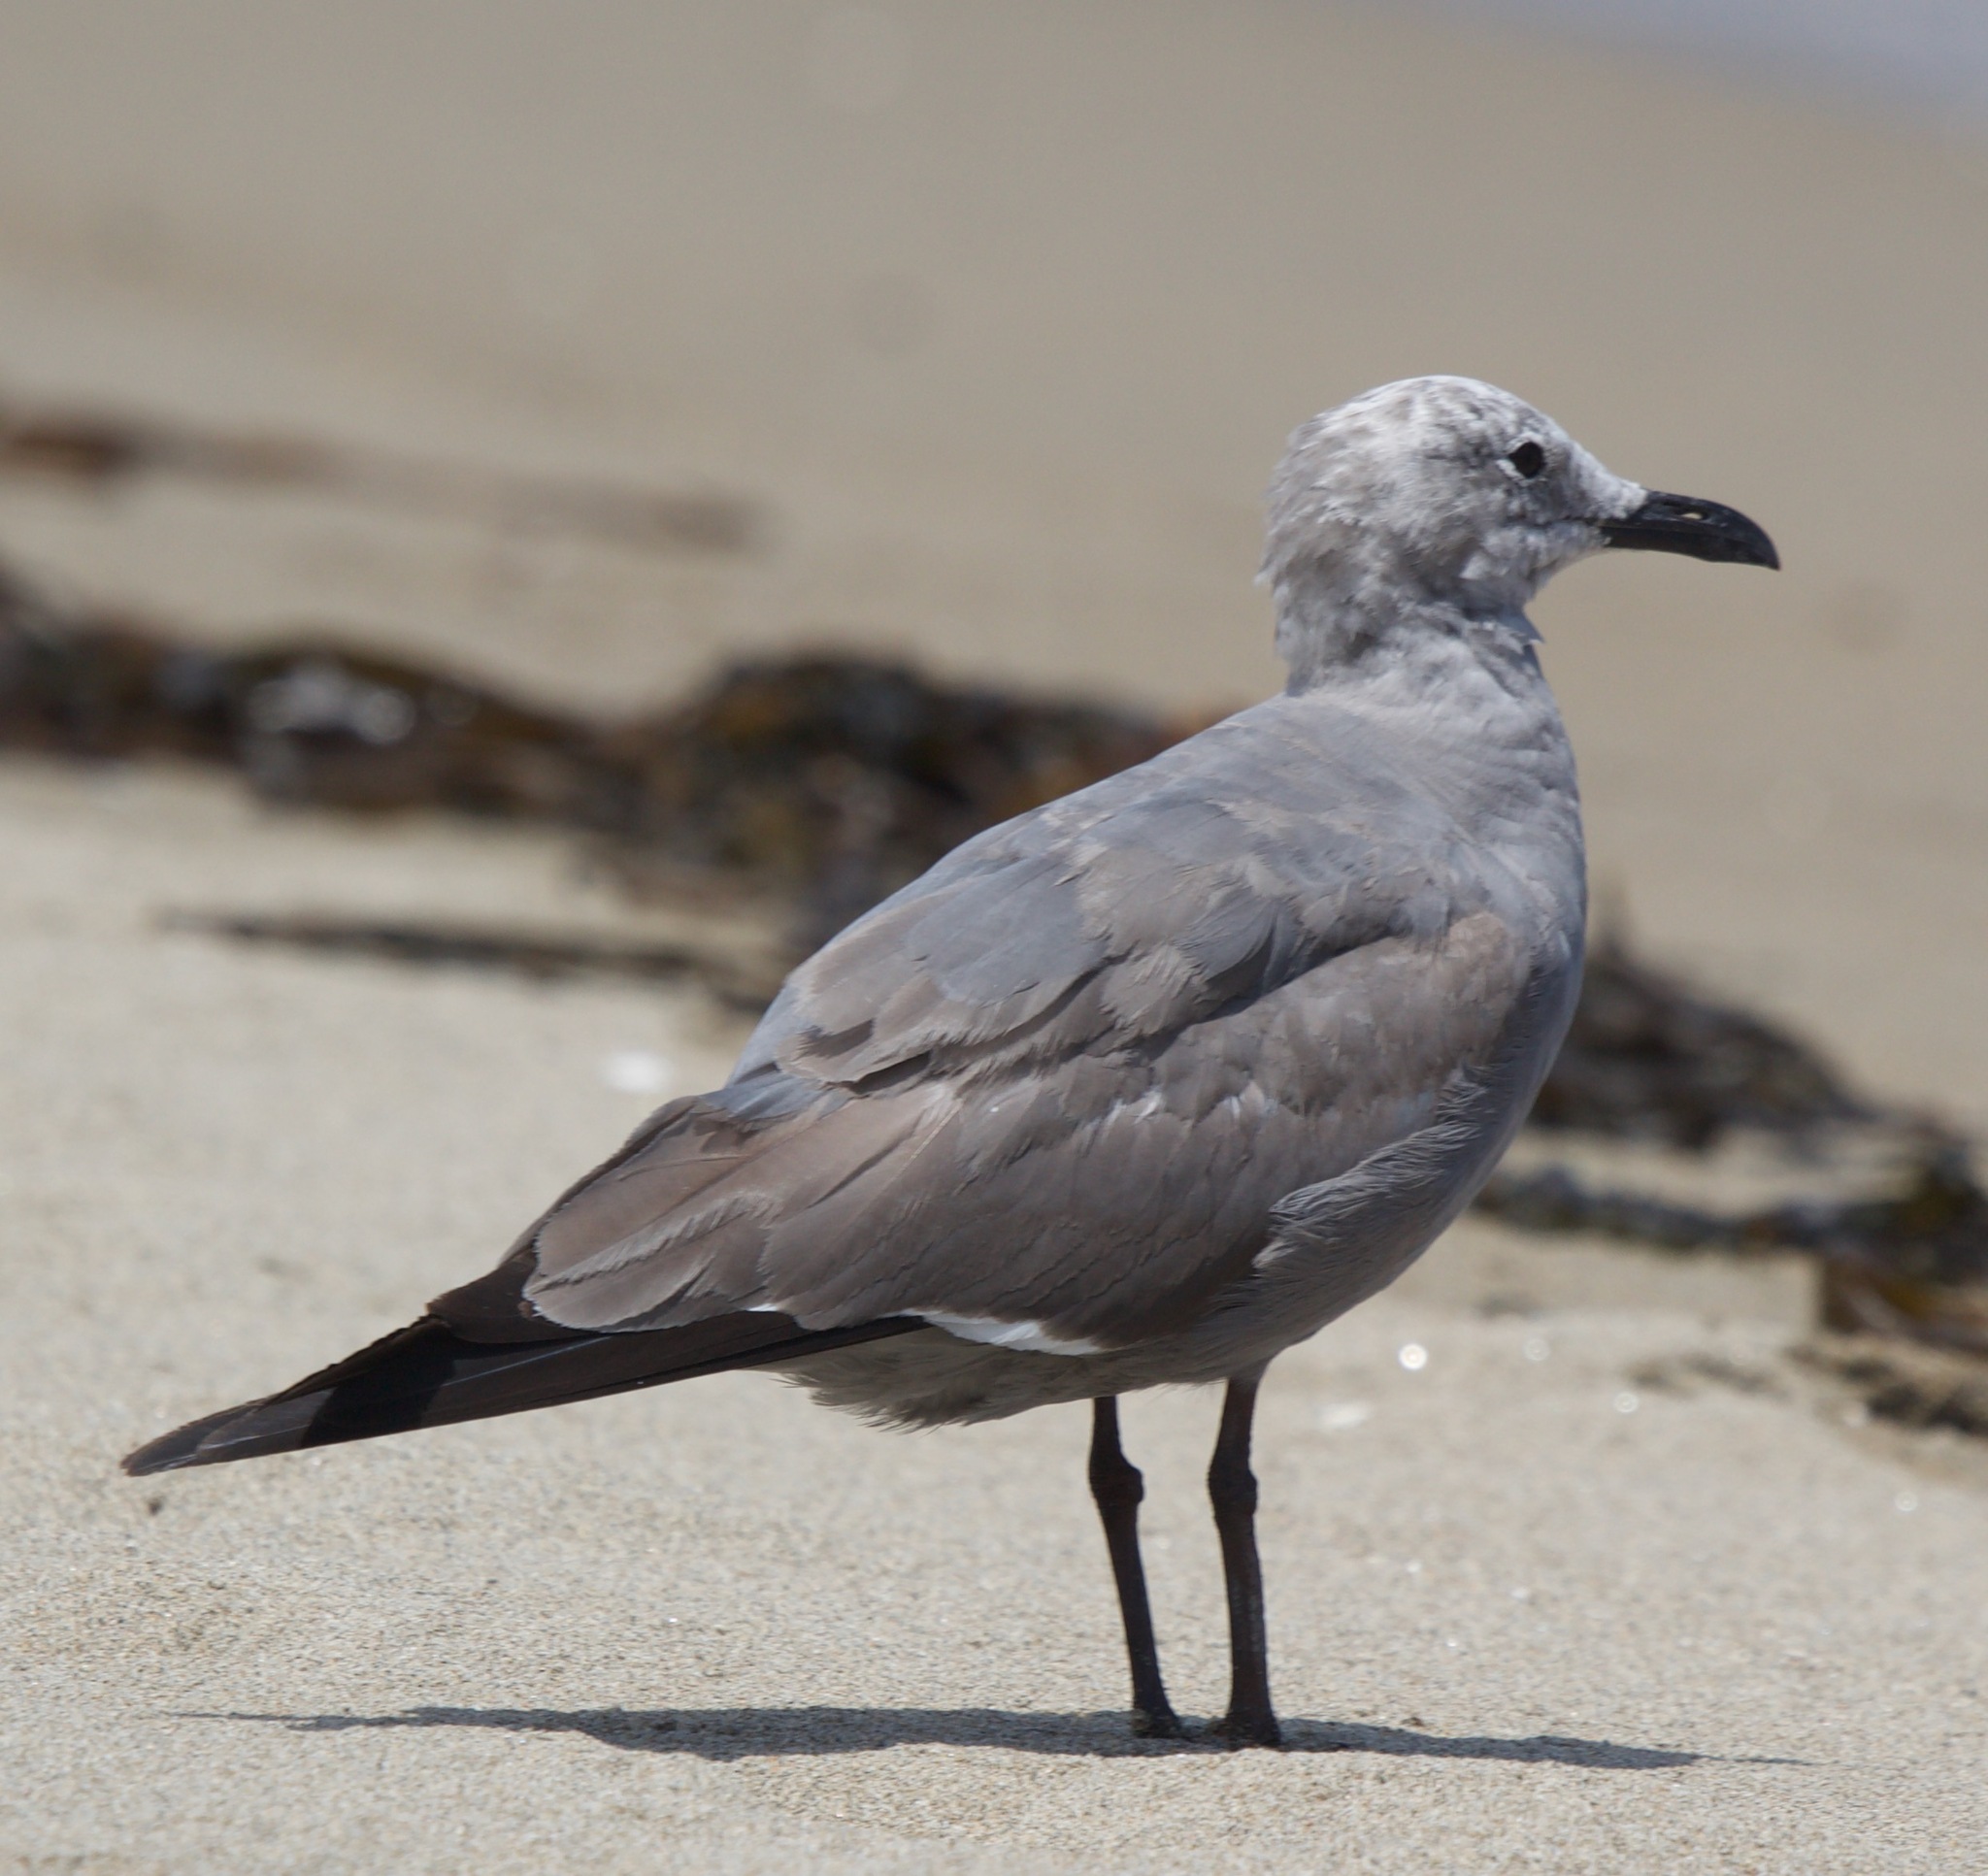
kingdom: Animalia
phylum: Chordata
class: Aves
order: Charadriiformes
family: Laridae
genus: Leucophaeus
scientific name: Leucophaeus modestus
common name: Gray gull
